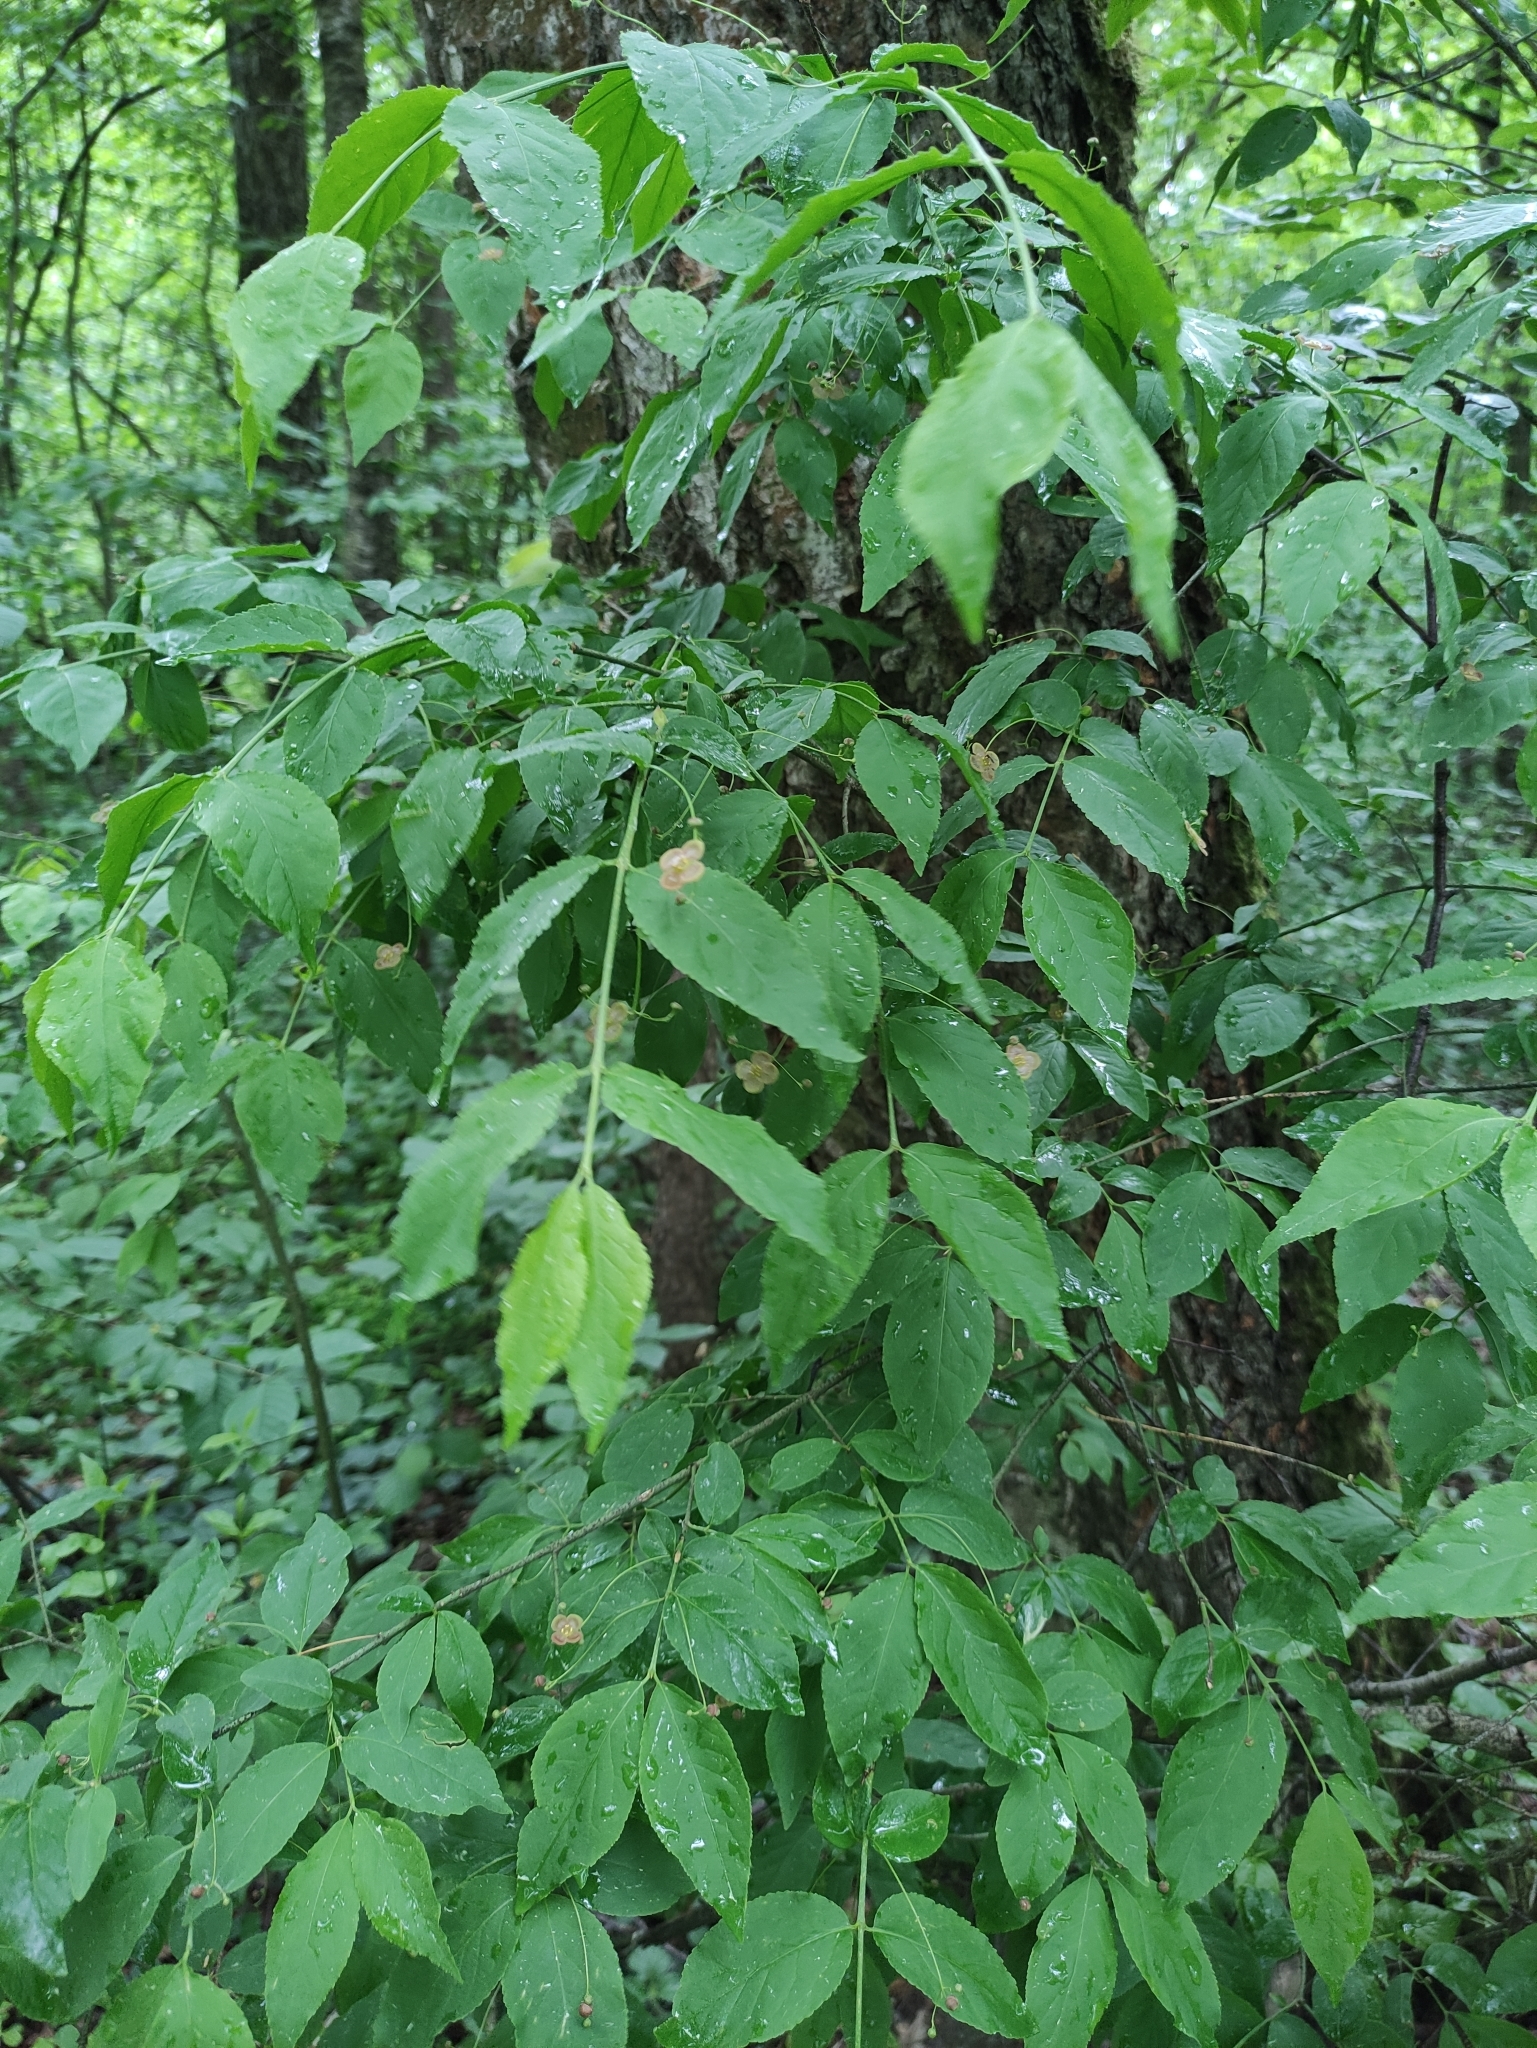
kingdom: Plantae
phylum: Tracheophyta
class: Magnoliopsida
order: Celastrales
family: Celastraceae
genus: Euonymus
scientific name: Euonymus verrucosus
